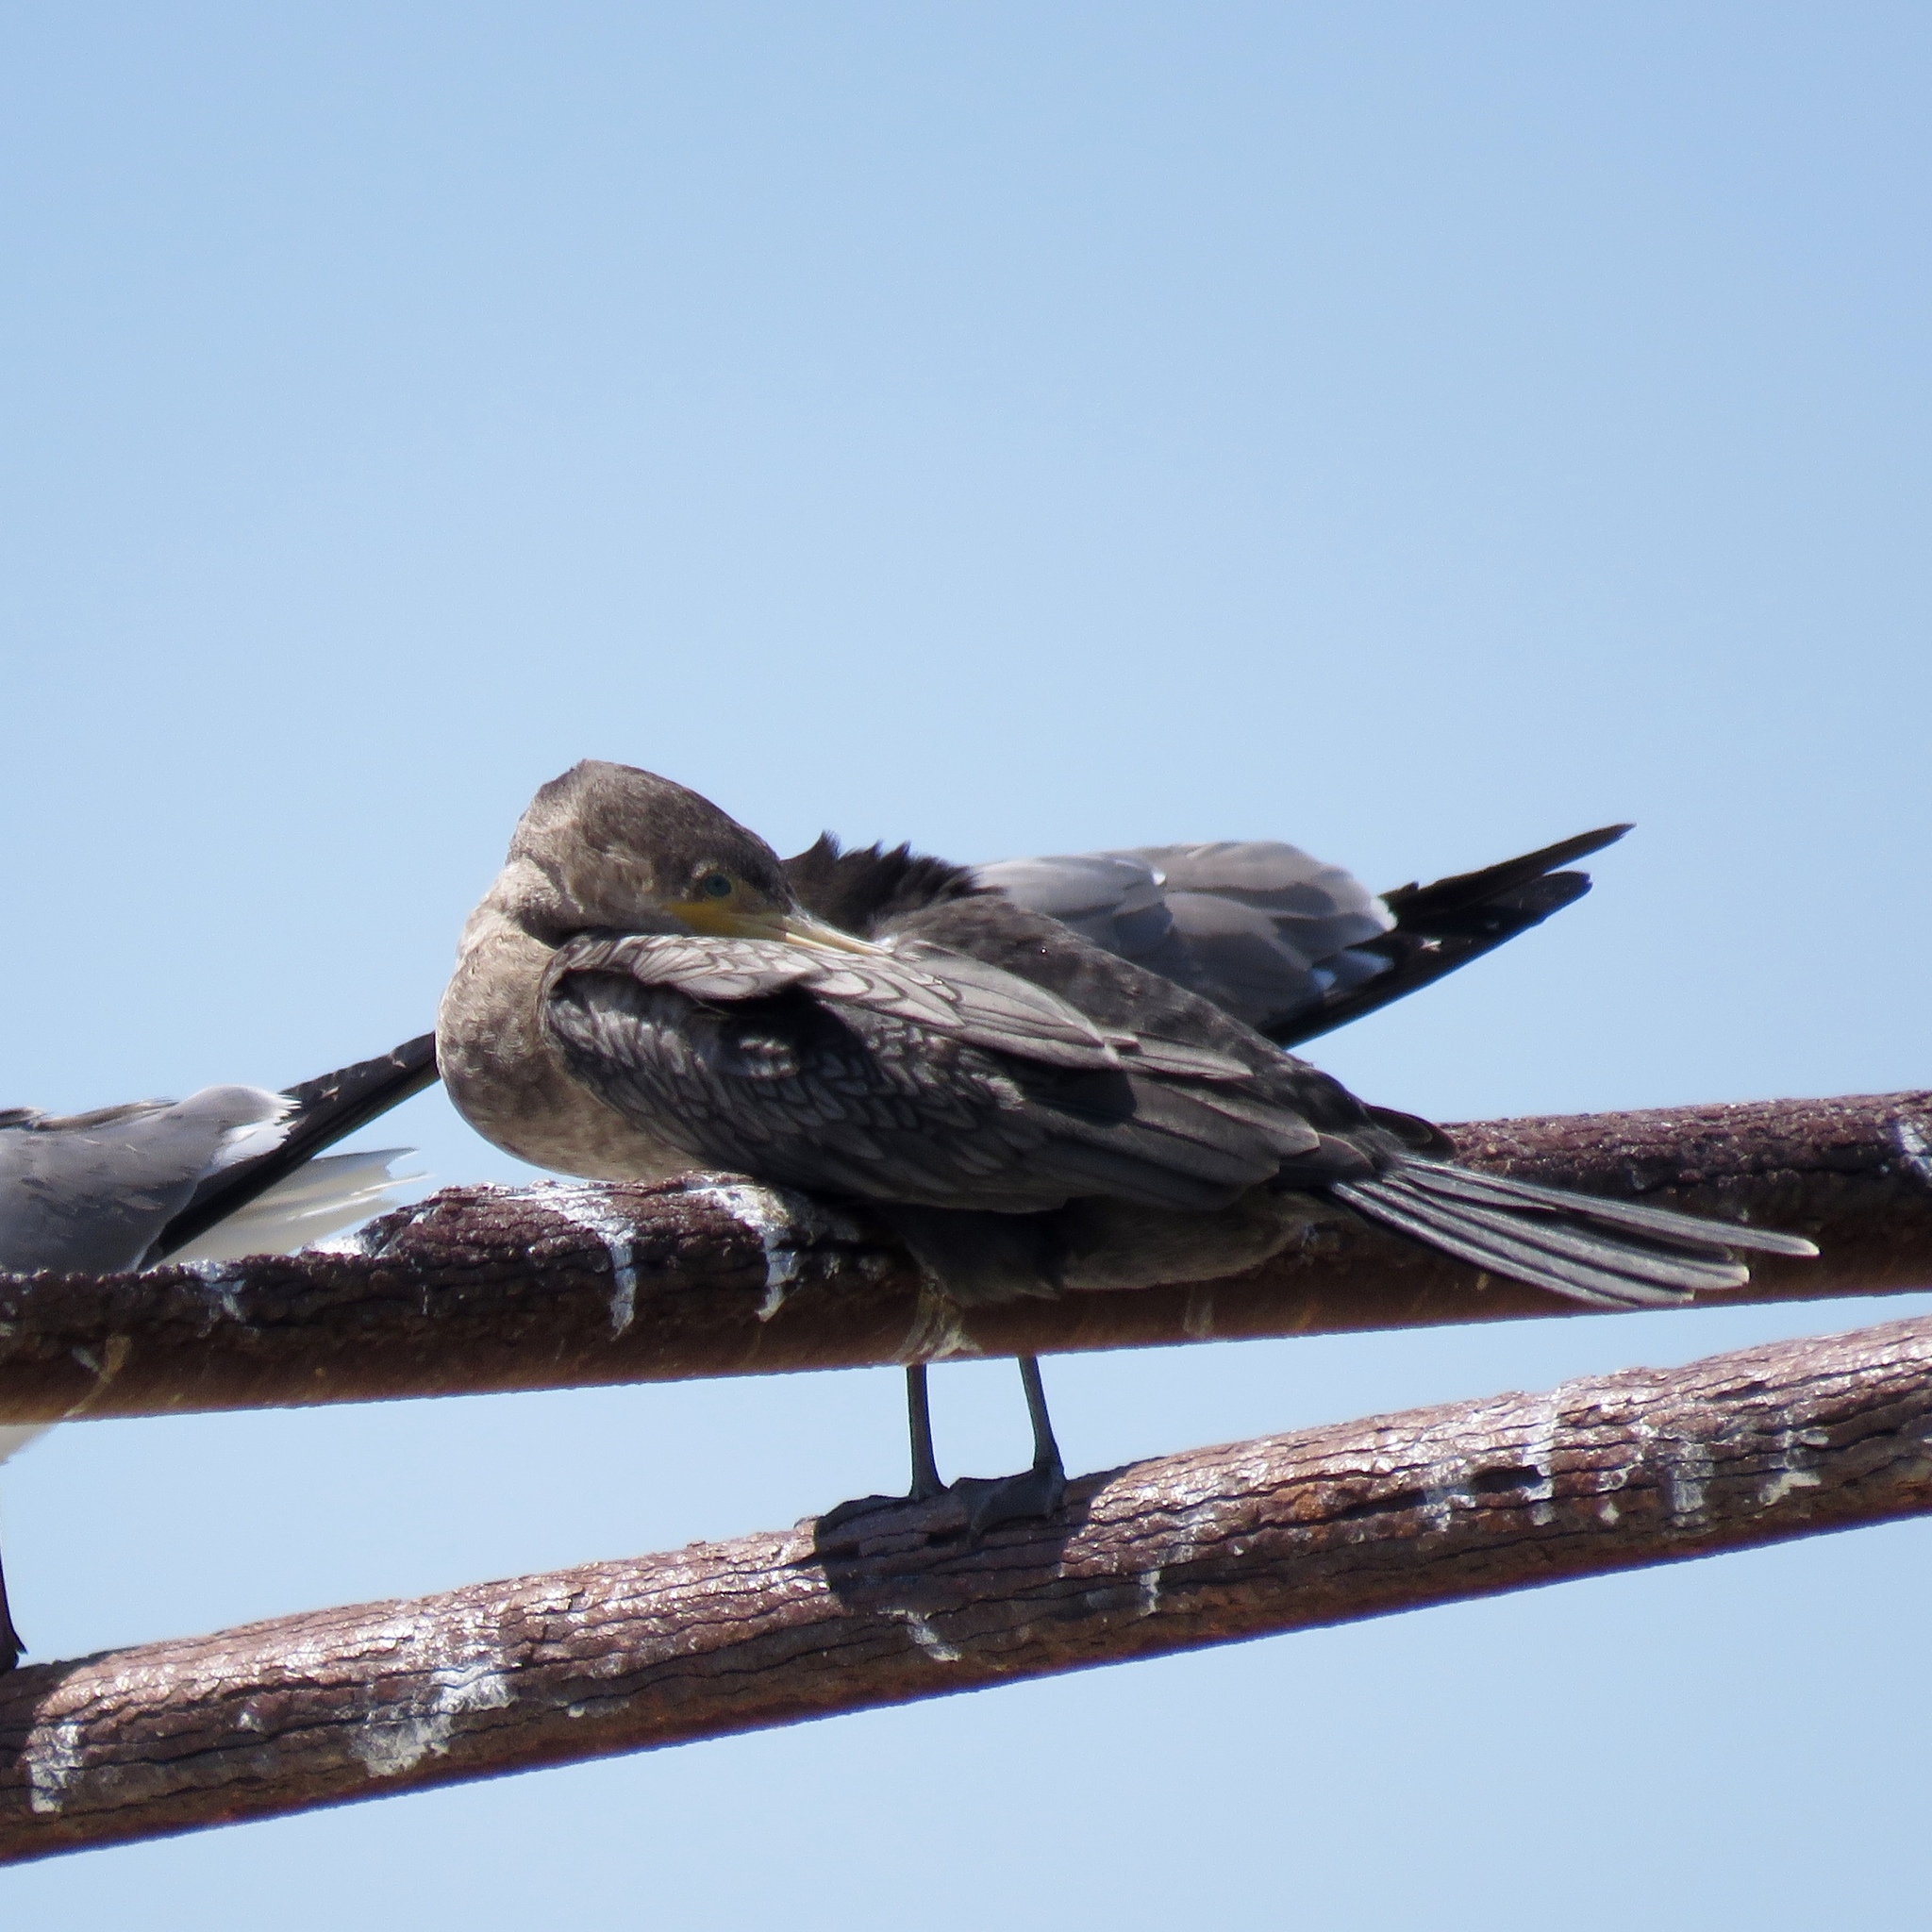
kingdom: Animalia
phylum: Chordata
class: Aves
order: Suliformes
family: Phalacrocoracidae
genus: Phalacrocorax
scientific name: Phalacrocorax brasilianus
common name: Neotropic cormorant
